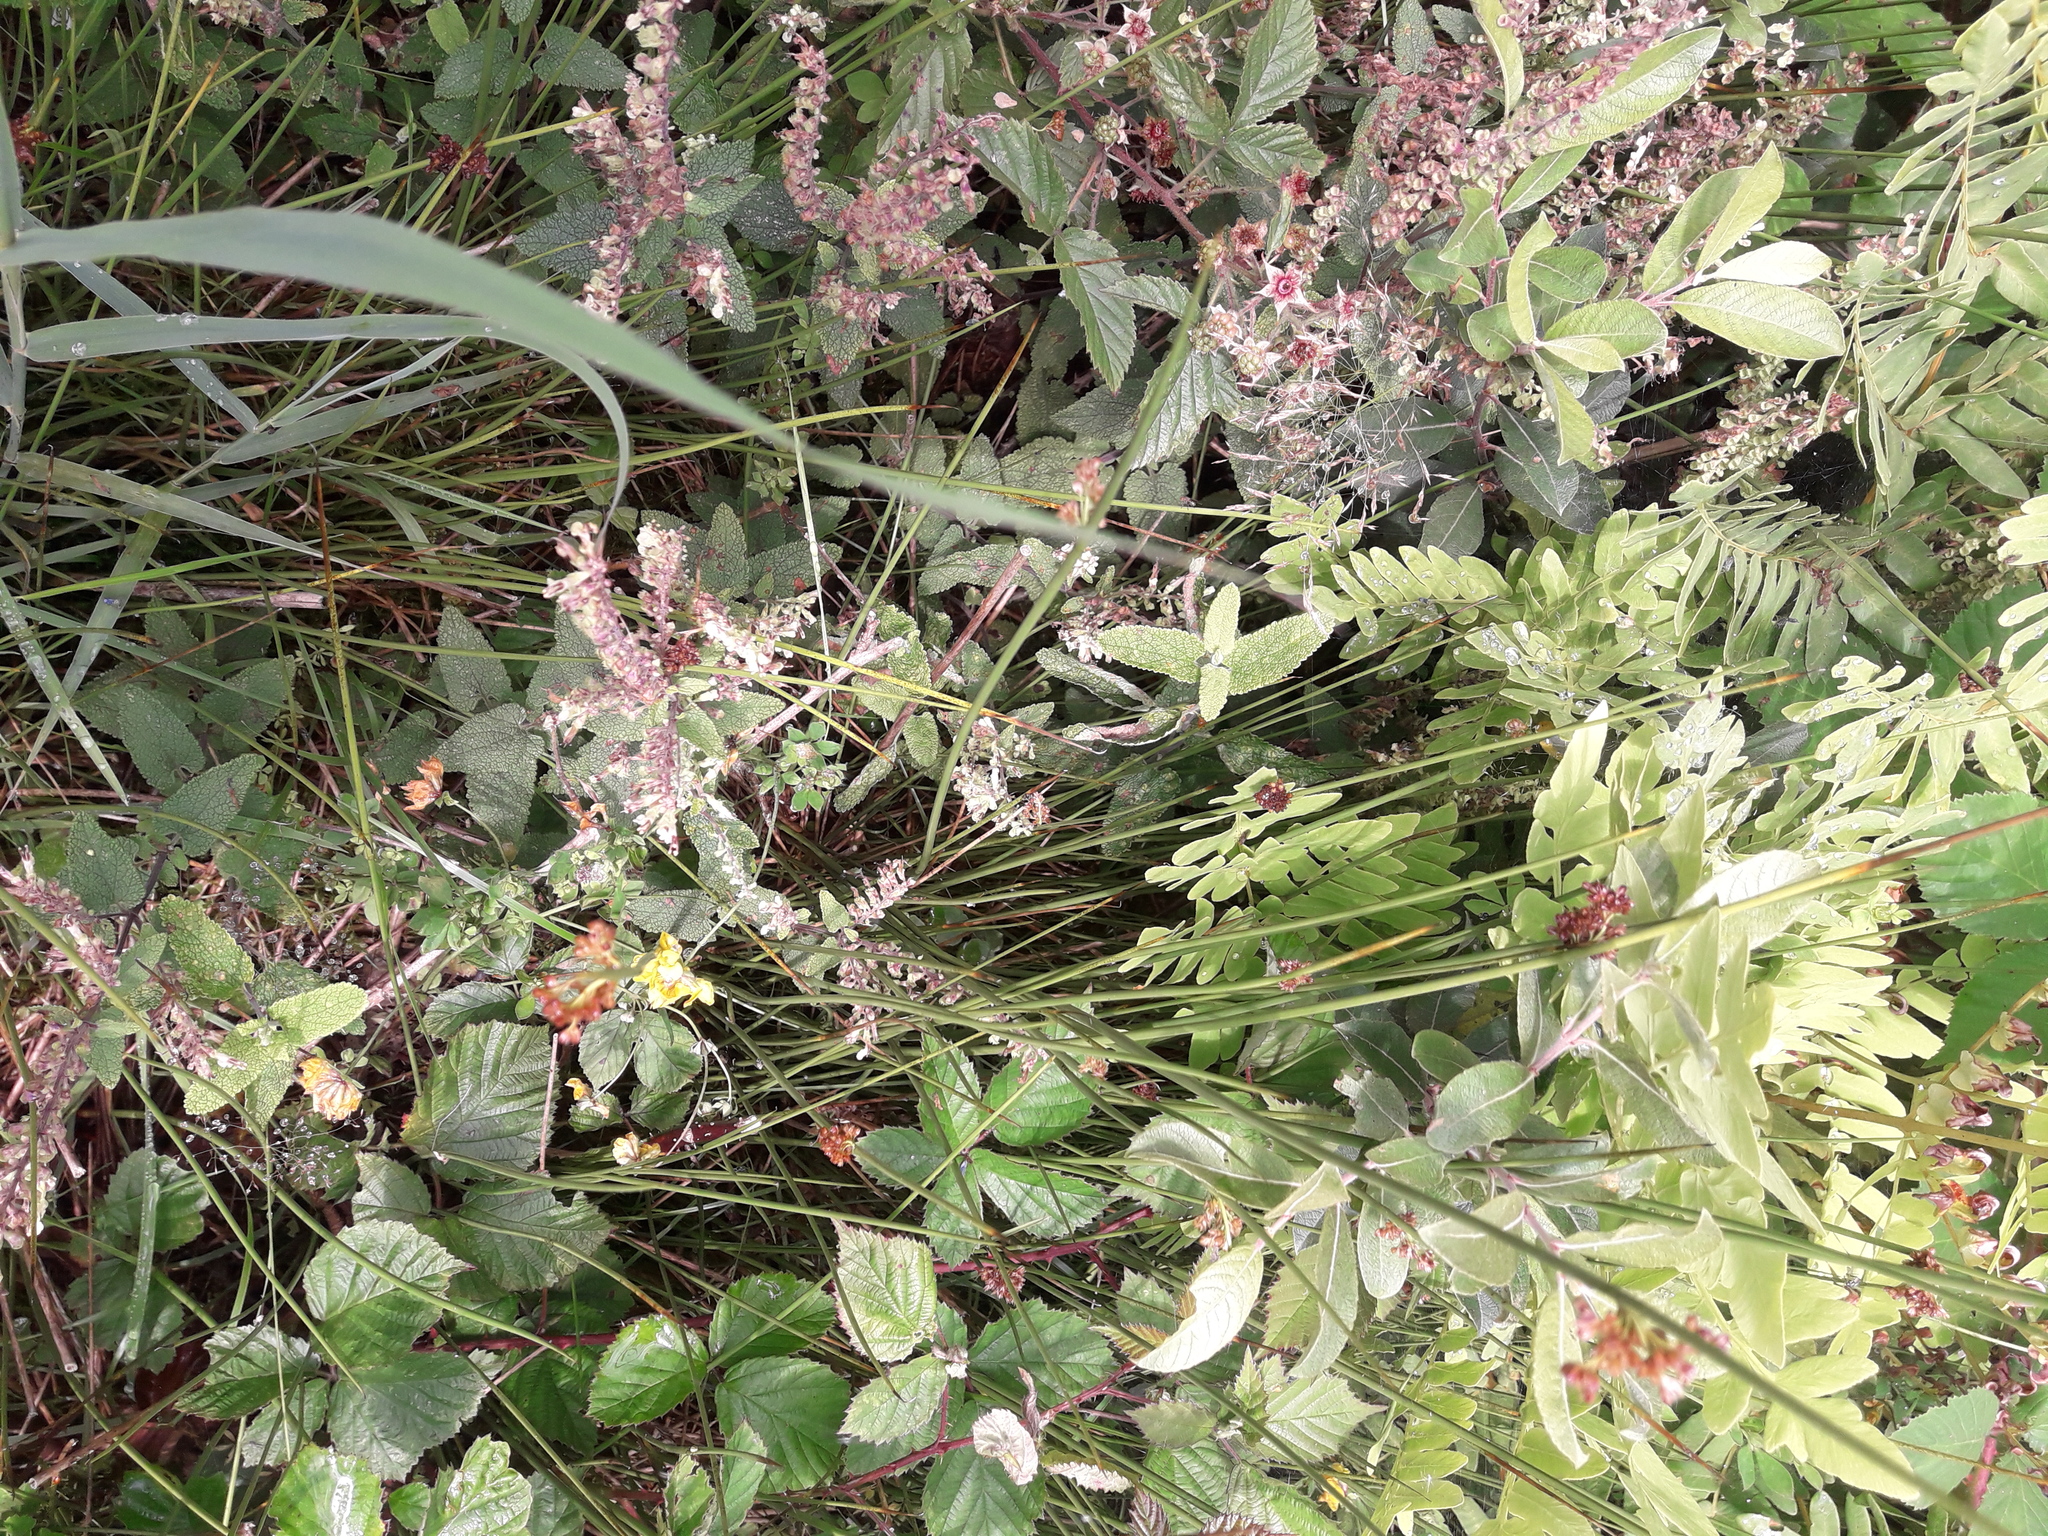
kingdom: Plantae
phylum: Tracheophyta
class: Magnoliopsida
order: Fabales
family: Fabaceae
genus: Lotus
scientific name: Lotus pedunculatus
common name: Greater birdsfoot-trefoil
